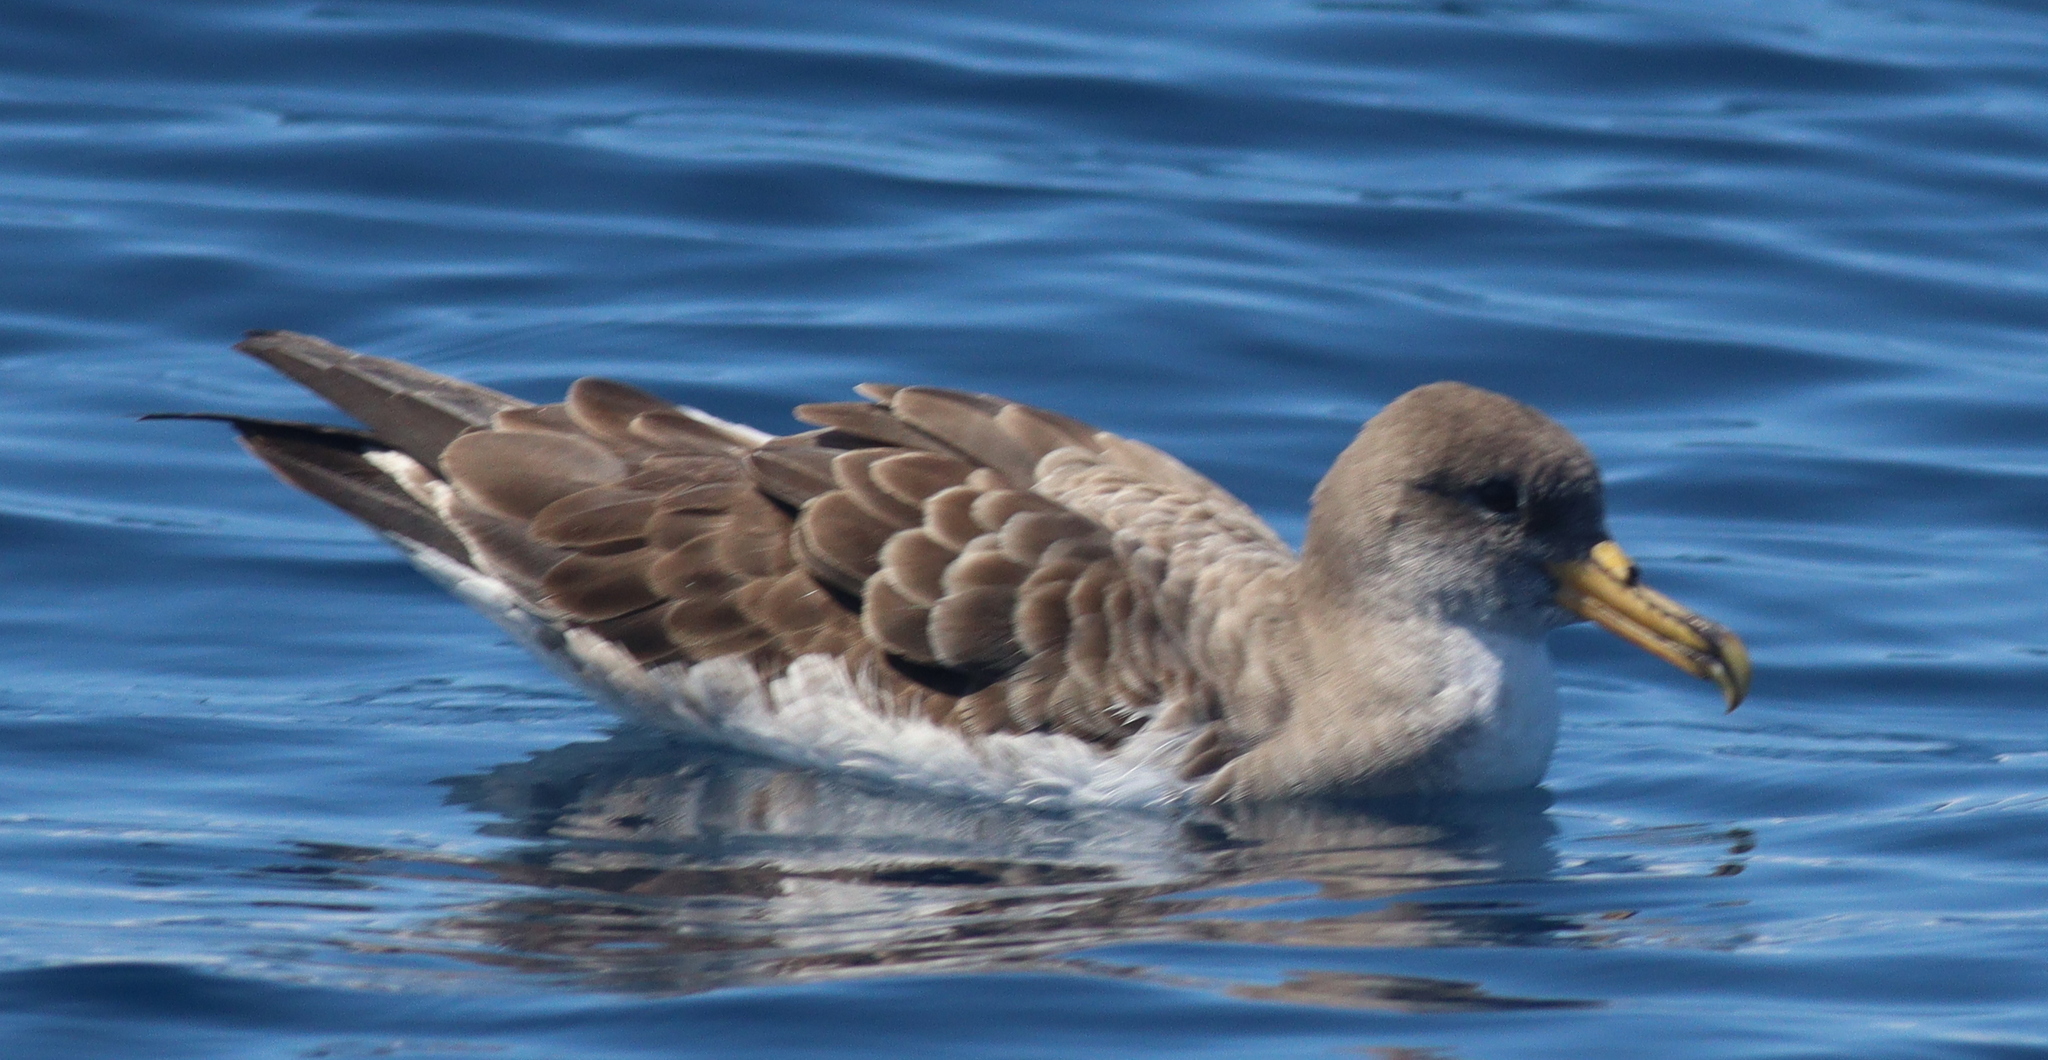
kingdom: Animalia
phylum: Chordata
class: Aves
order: Procellariiformes
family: Procellariidae
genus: Calonectris
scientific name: Calonectris diomedea
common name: Cory's shearwater
